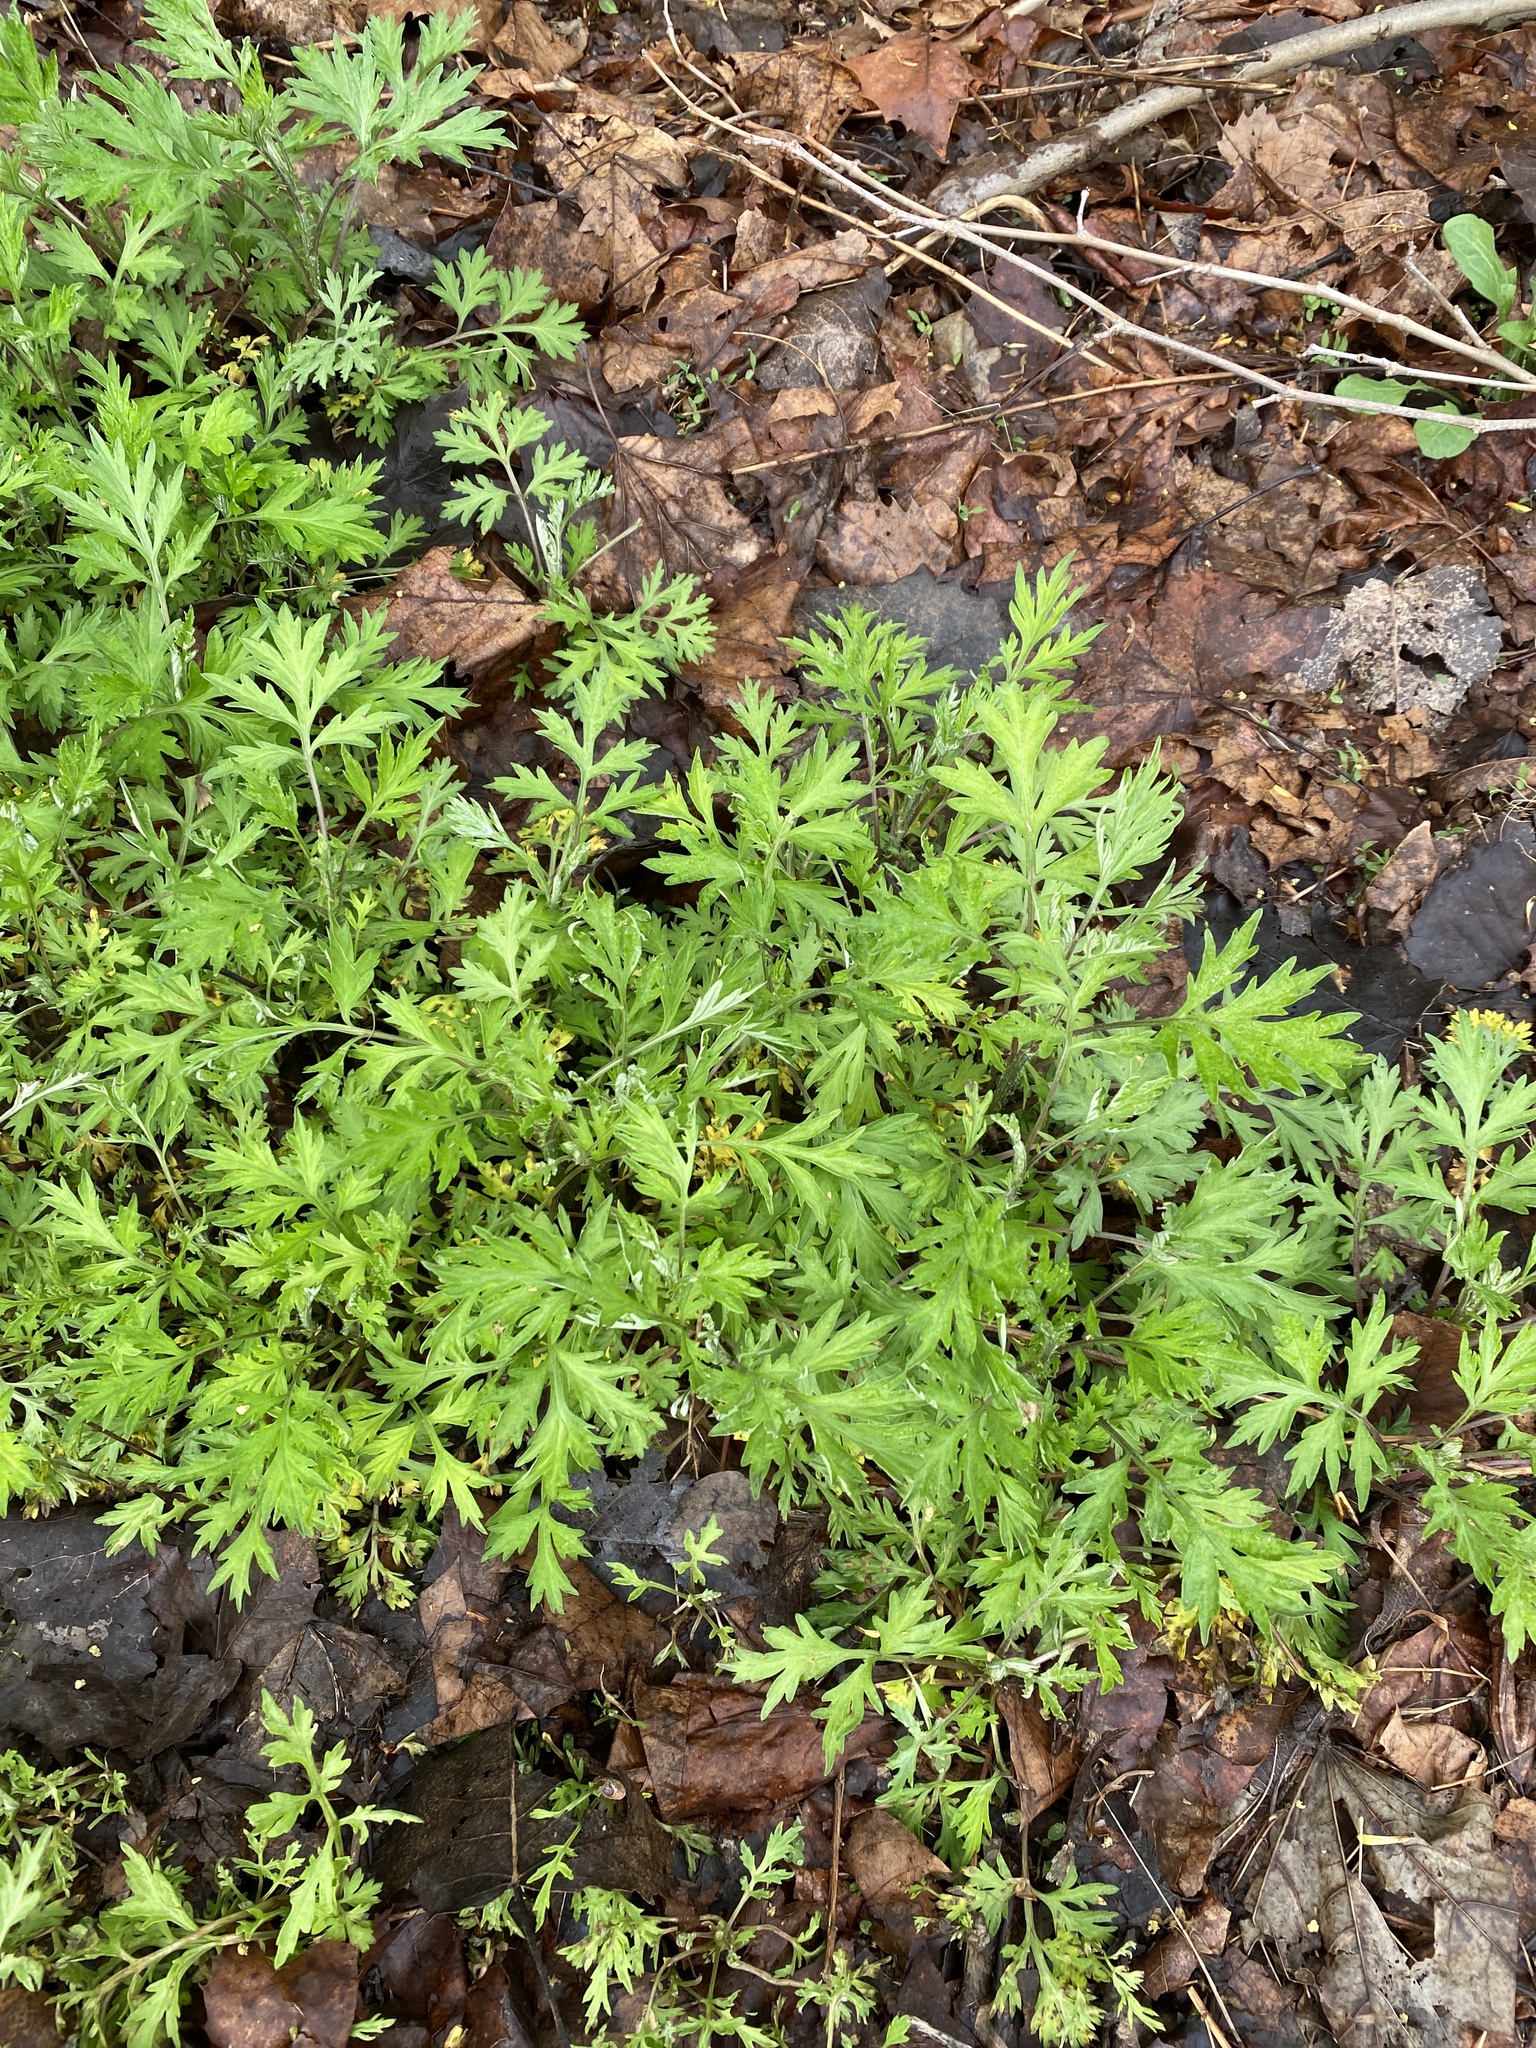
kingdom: Plantae
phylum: Tracheophyta
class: Magnoliopsida
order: Asterales
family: Asteraceae
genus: Artemisia
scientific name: Artemisia vulgaris
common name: Mugwort
